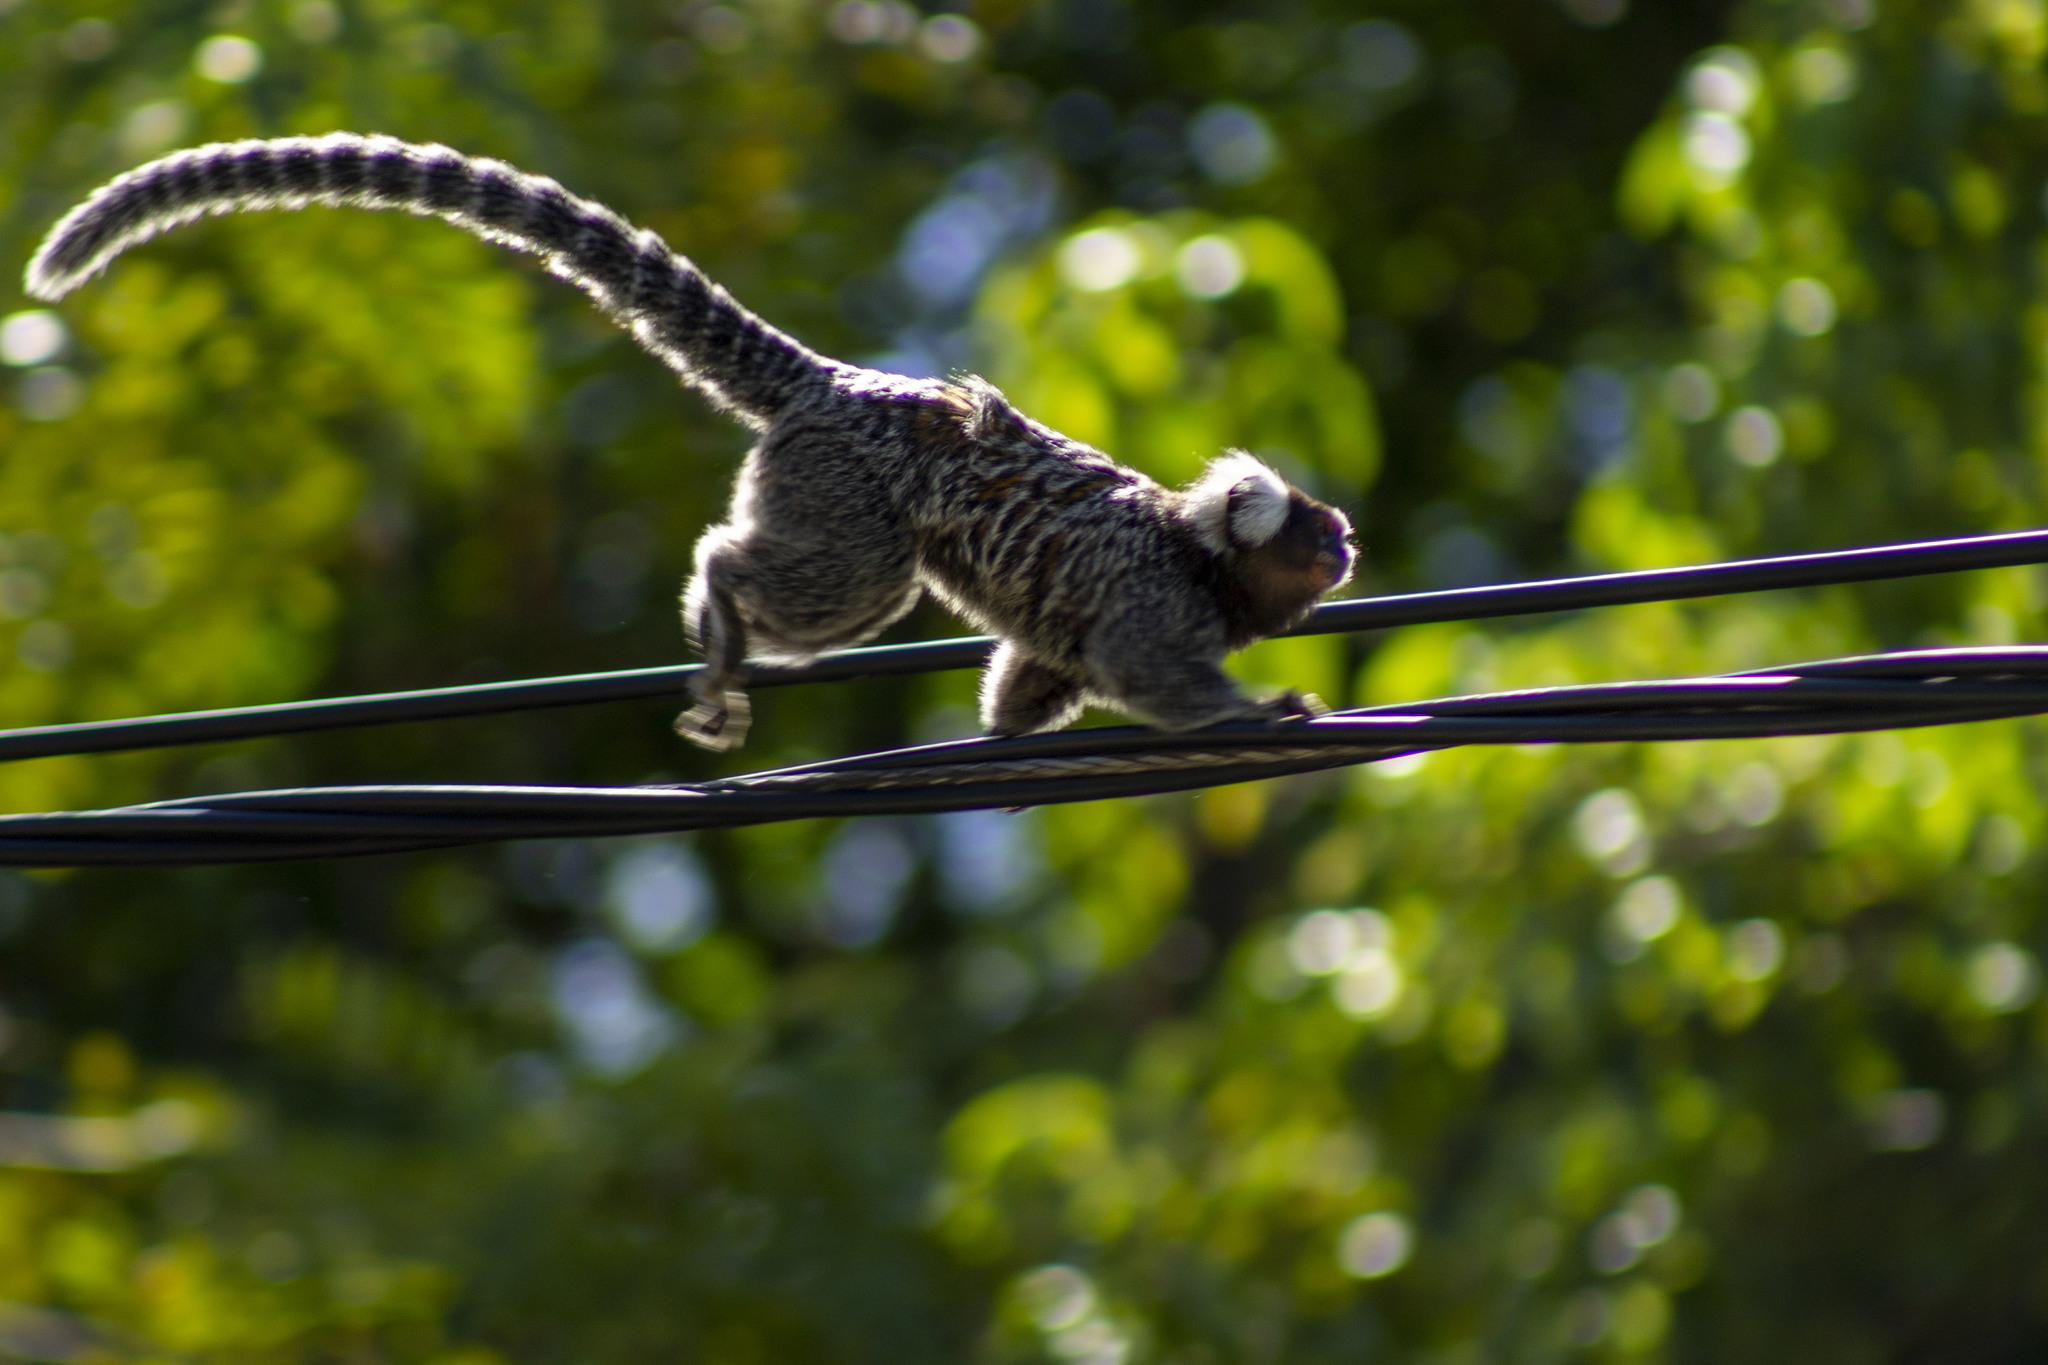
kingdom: Animalia
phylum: Chordata
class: Mammalia
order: Primates
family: Callitrichidae
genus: Callithrix
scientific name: Callithrix jacchus
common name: Common marmoset
